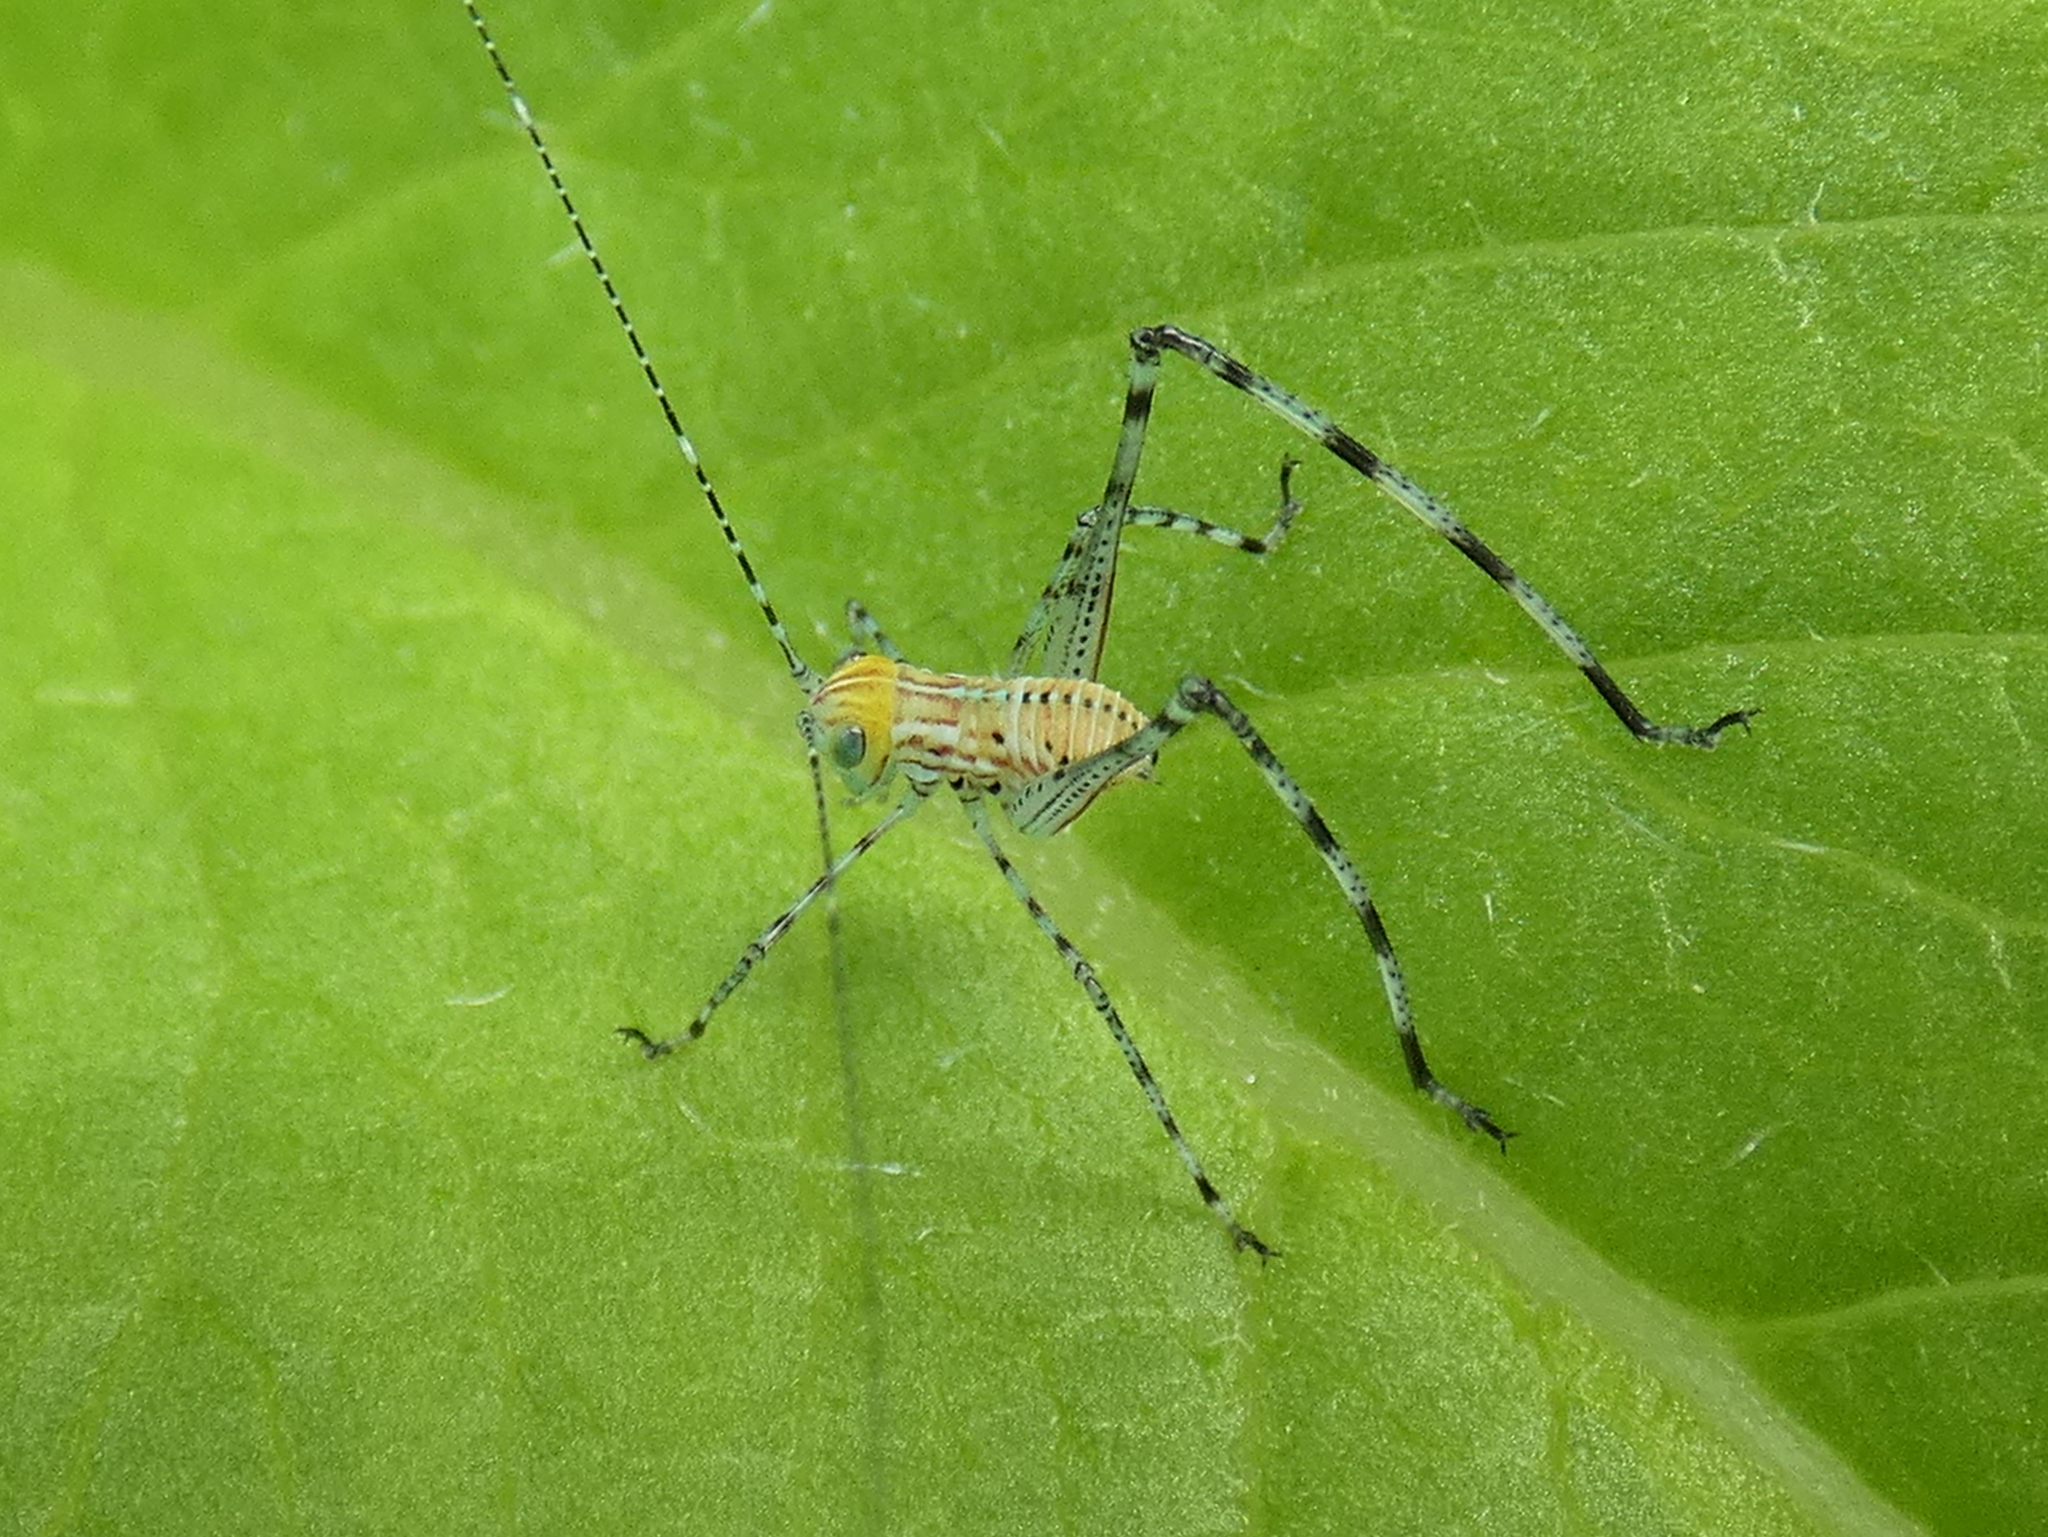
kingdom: Animalia
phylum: Arthropoda
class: Insecta
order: Orthoptera
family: Tettigoniidae
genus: Stilpnochlora
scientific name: Stilpnochlora couloniana
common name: Giant katydid
